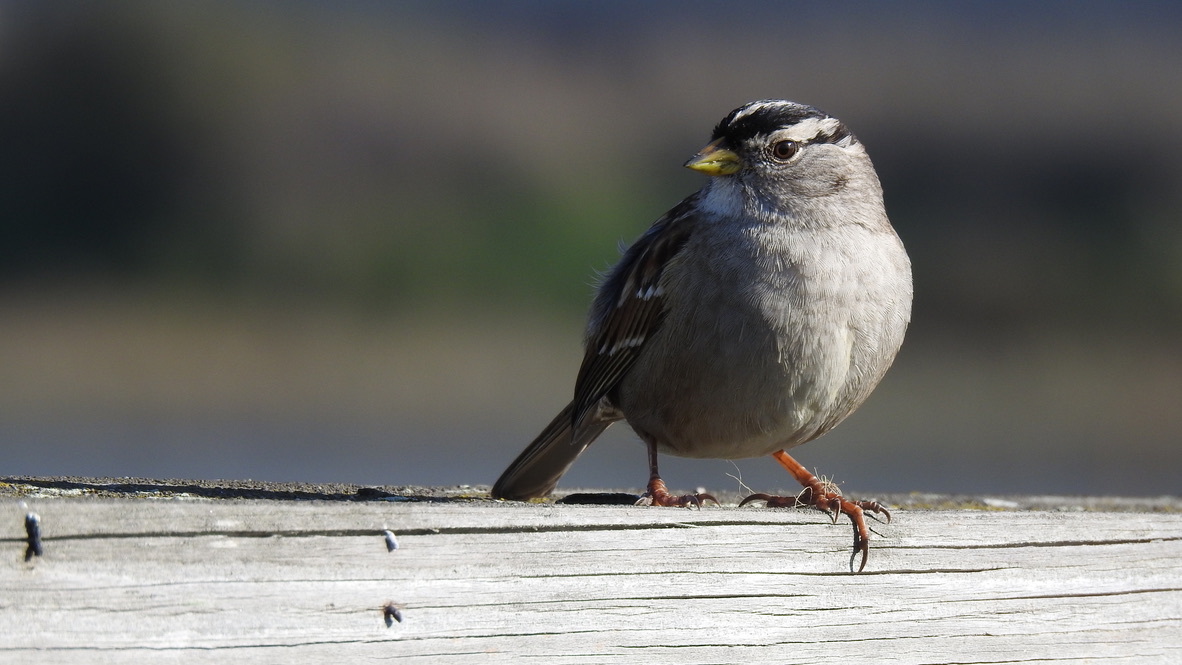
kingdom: Animalia
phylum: Chordata
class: Aves
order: Passeriformes
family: Passerellidae
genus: Zonotrichia
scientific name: Zonotrichia leucophrys
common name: White-crowned sparrow
